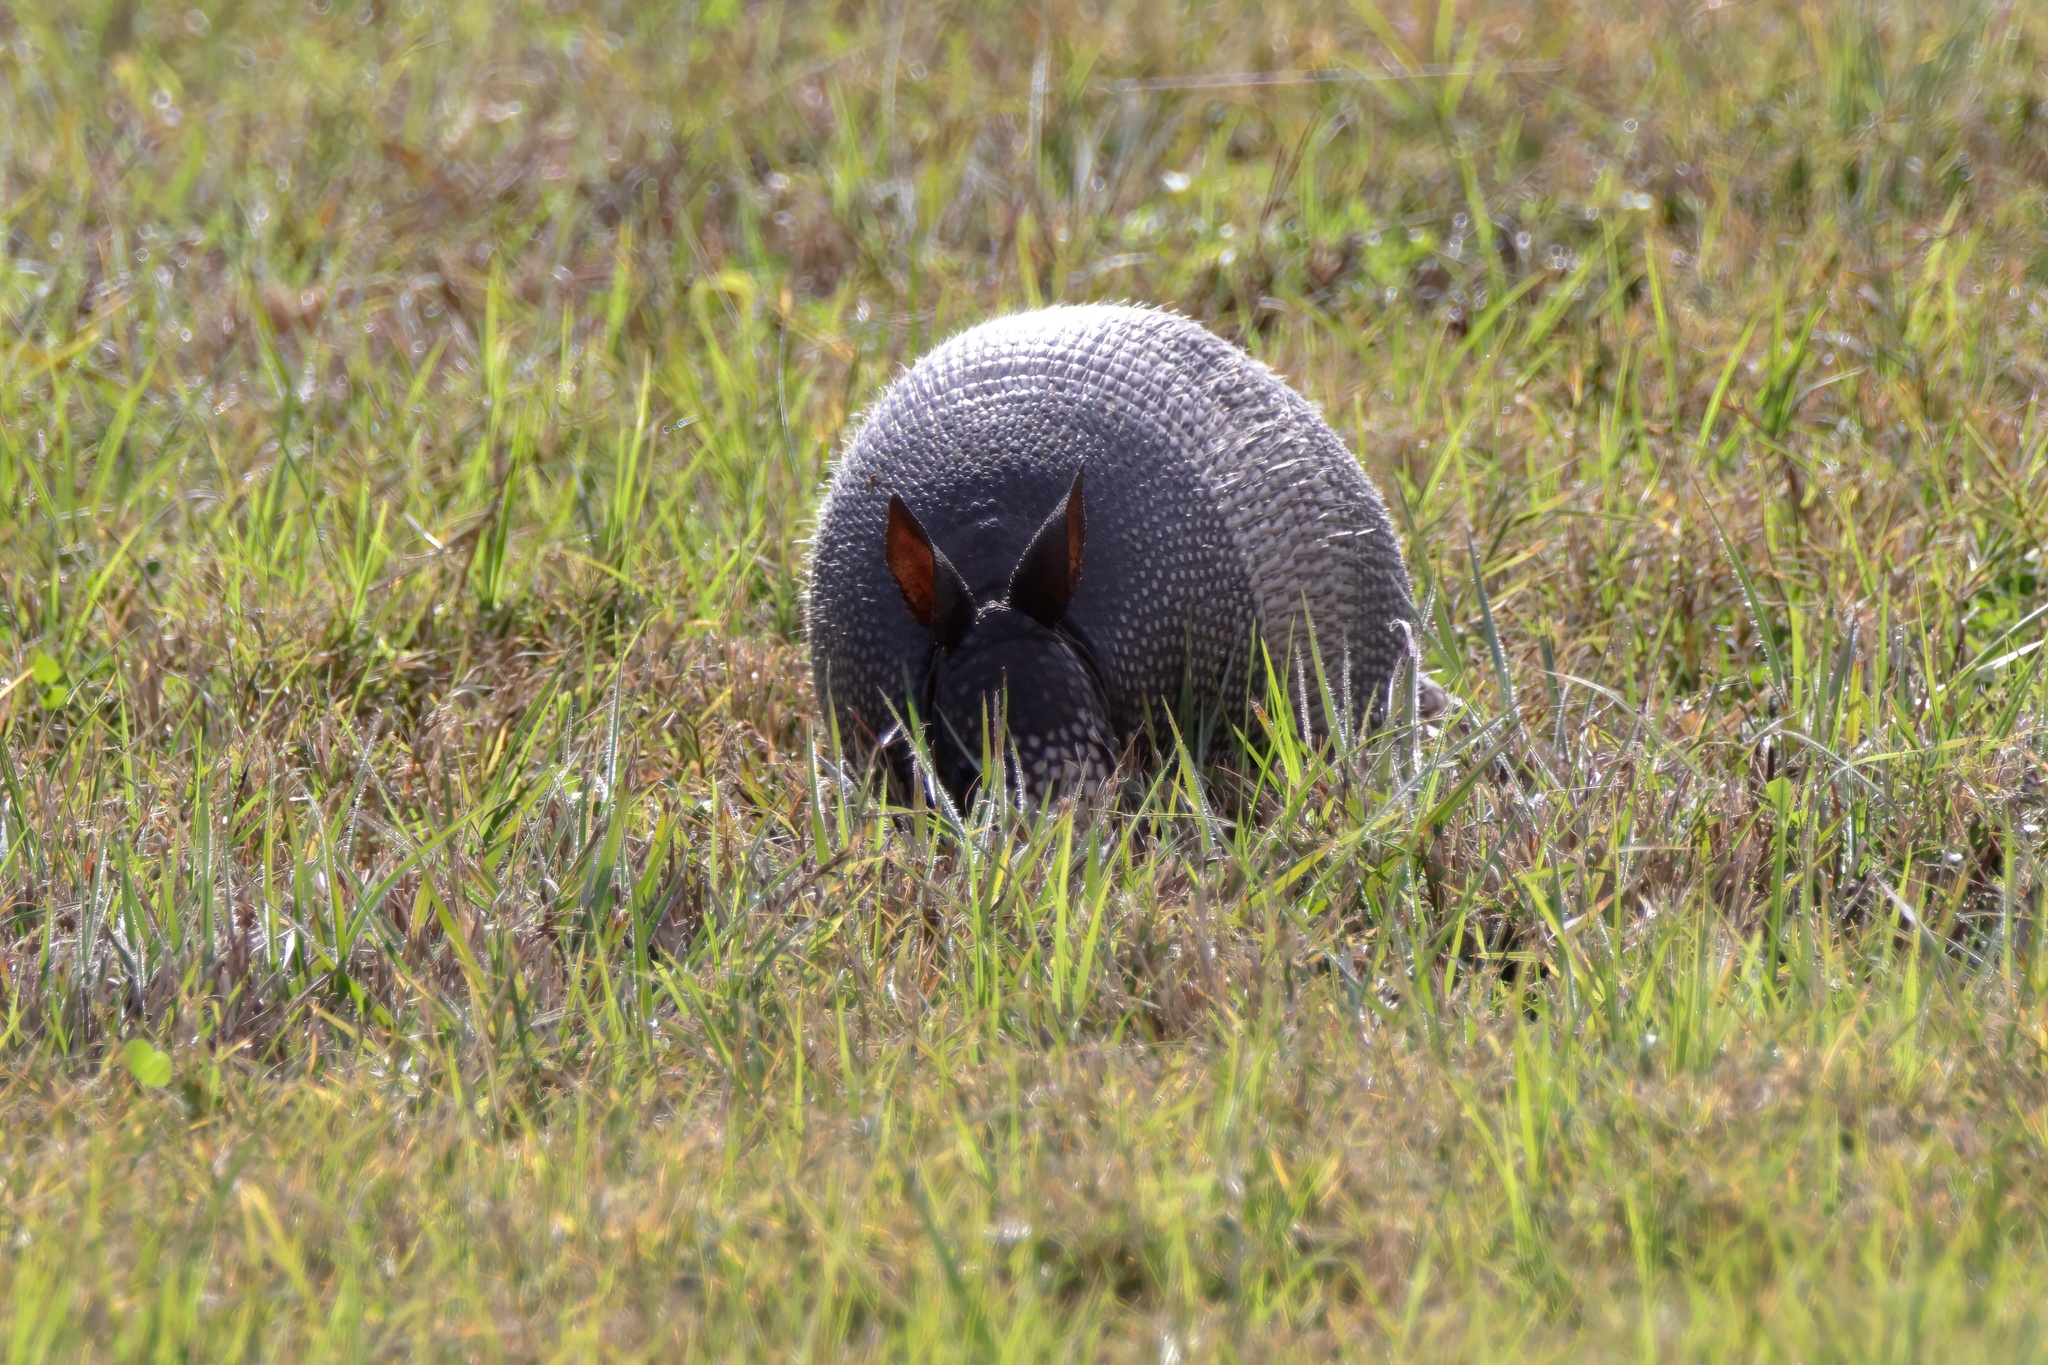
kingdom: Animalia
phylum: Chordata
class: Mammalia
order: Cingulata
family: Dasypodidae
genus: Dasypus
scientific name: Dasypus novemcinctus
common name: Nine-banded armadillo
